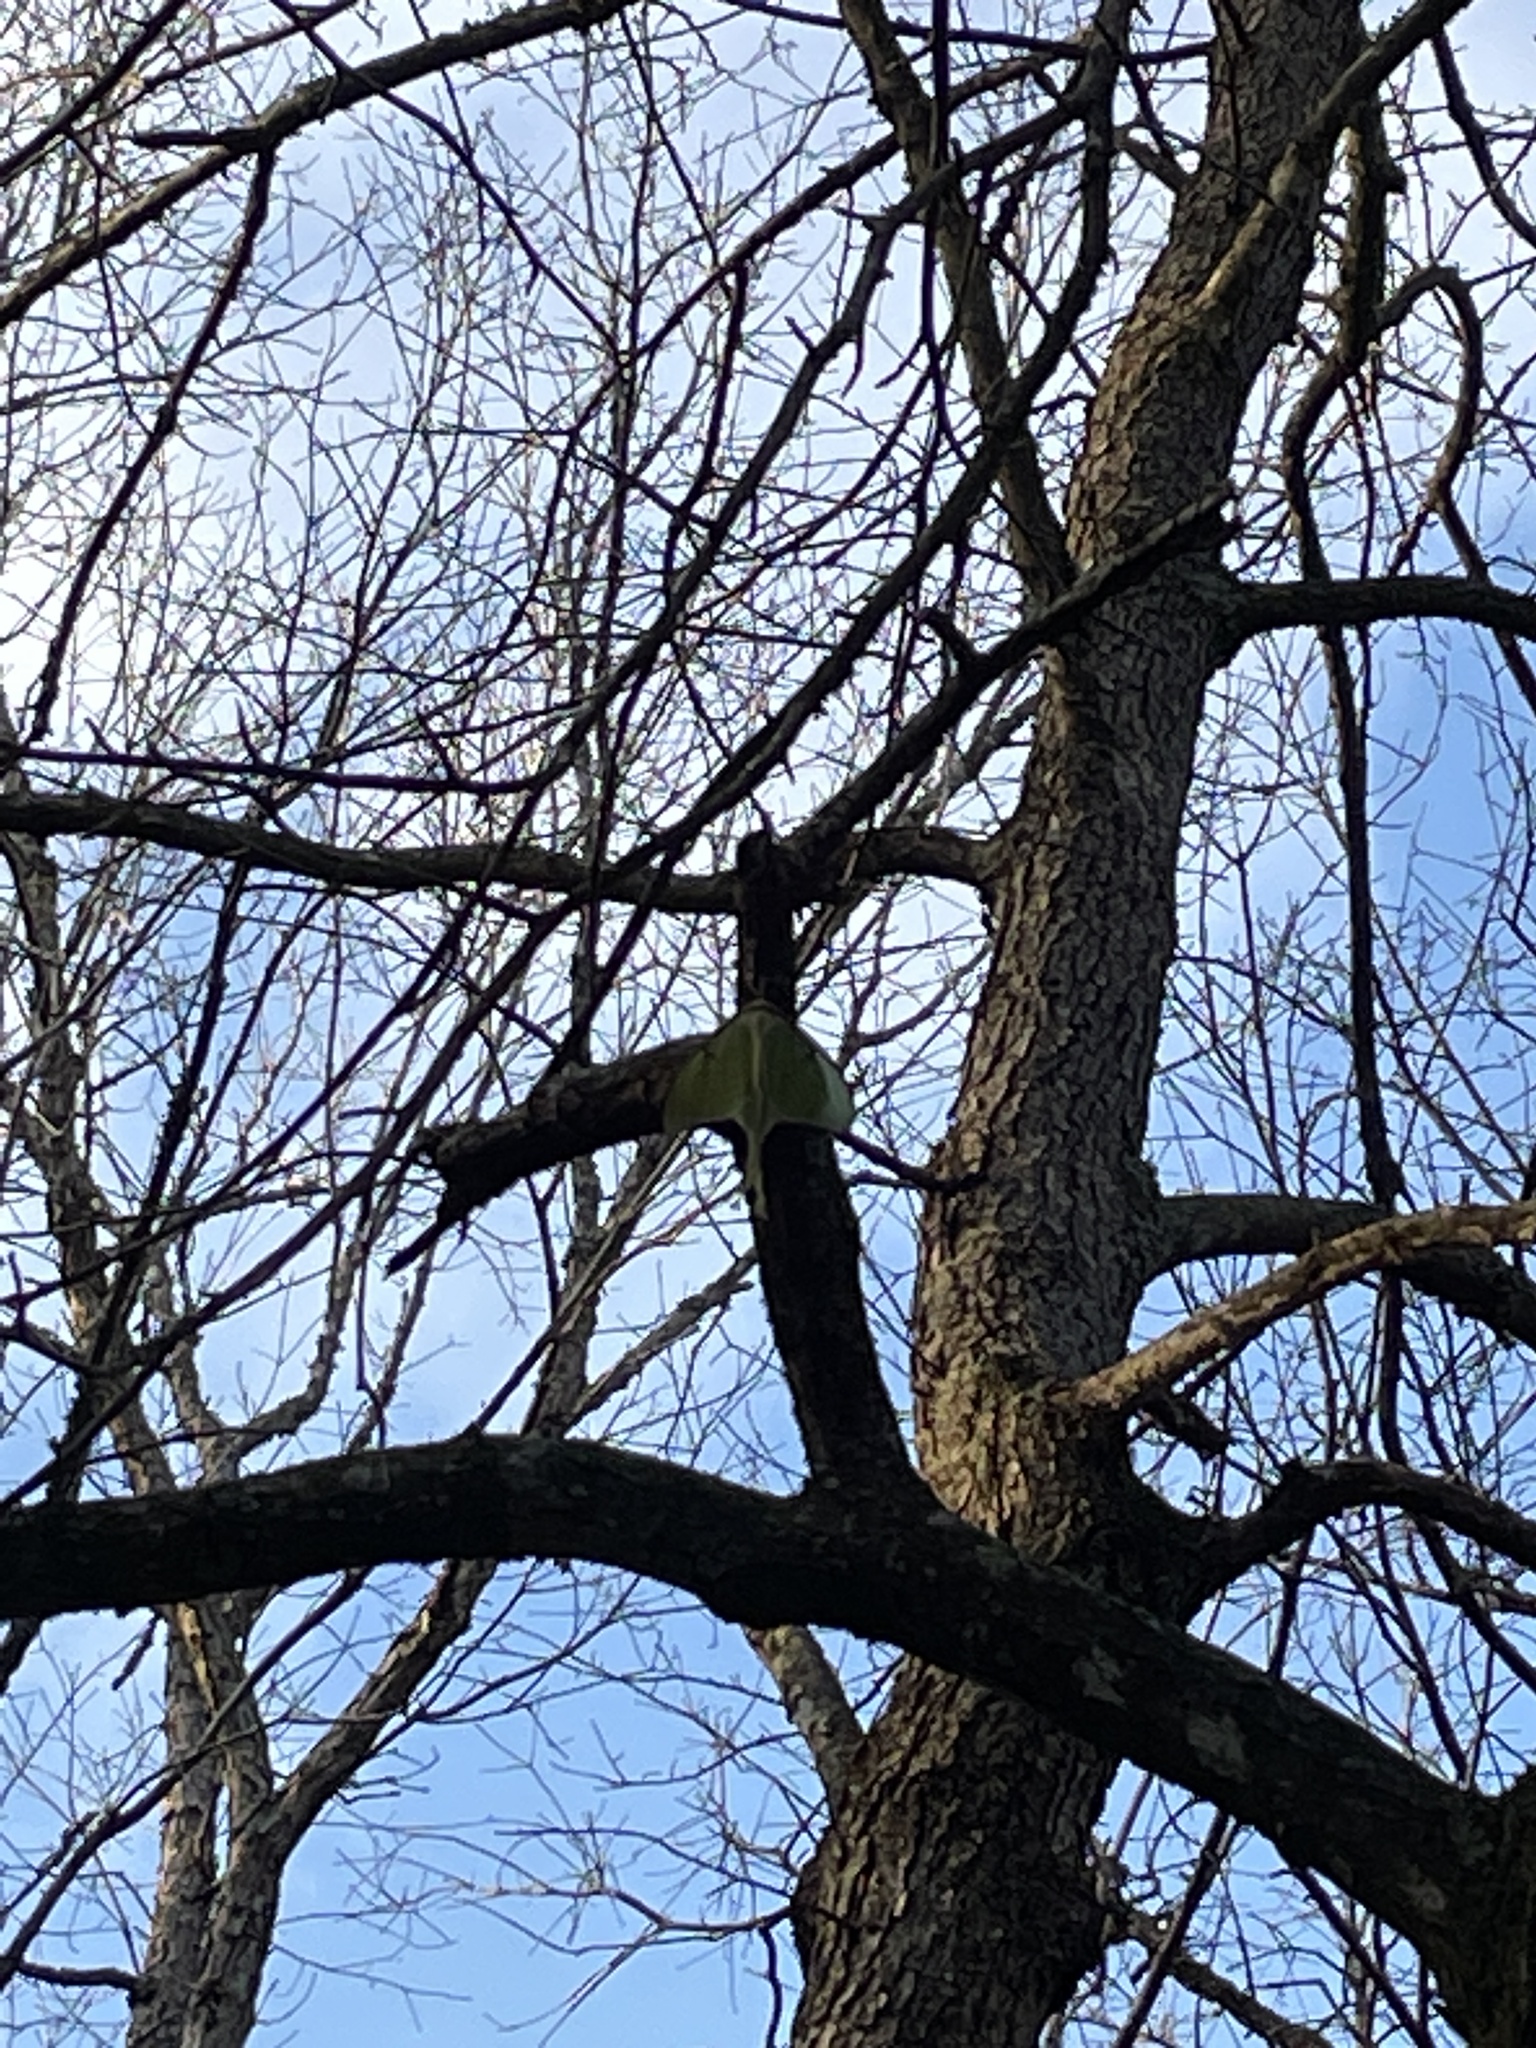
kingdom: Animalia
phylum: Arthropoda
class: Insecta
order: Lepidoptera
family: Saturniidae
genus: Actias
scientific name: Actias luna
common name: Luna moth
